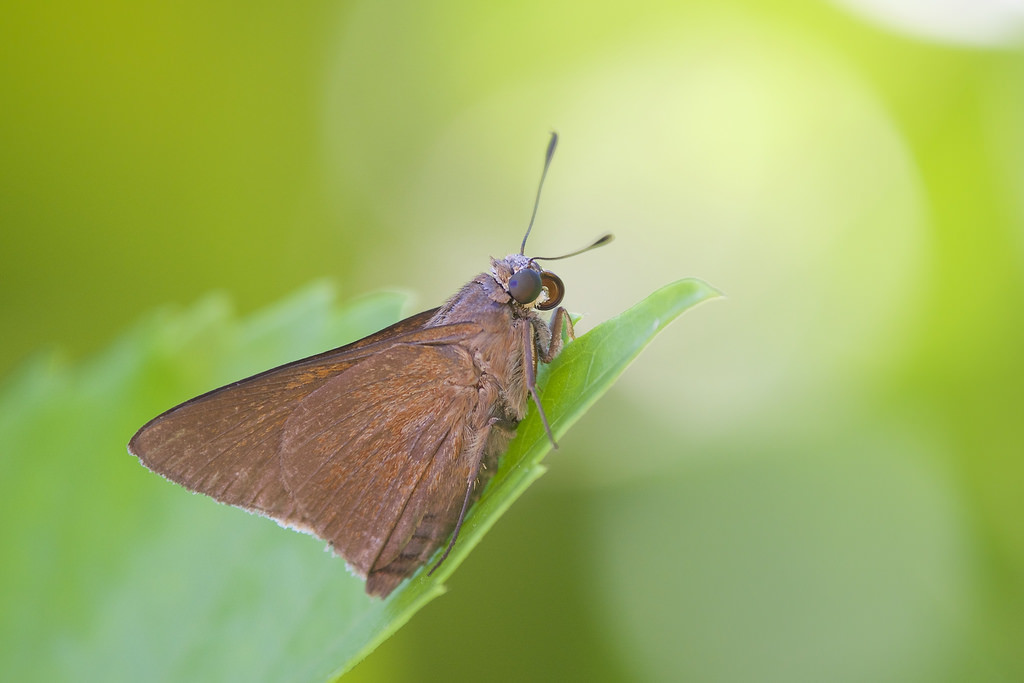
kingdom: Animalia
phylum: Arthropoda
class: Insecta
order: Lepidoptera
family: Hesperiidae
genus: Asbolis
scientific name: Asbolis capucinus
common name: Monk skipper
